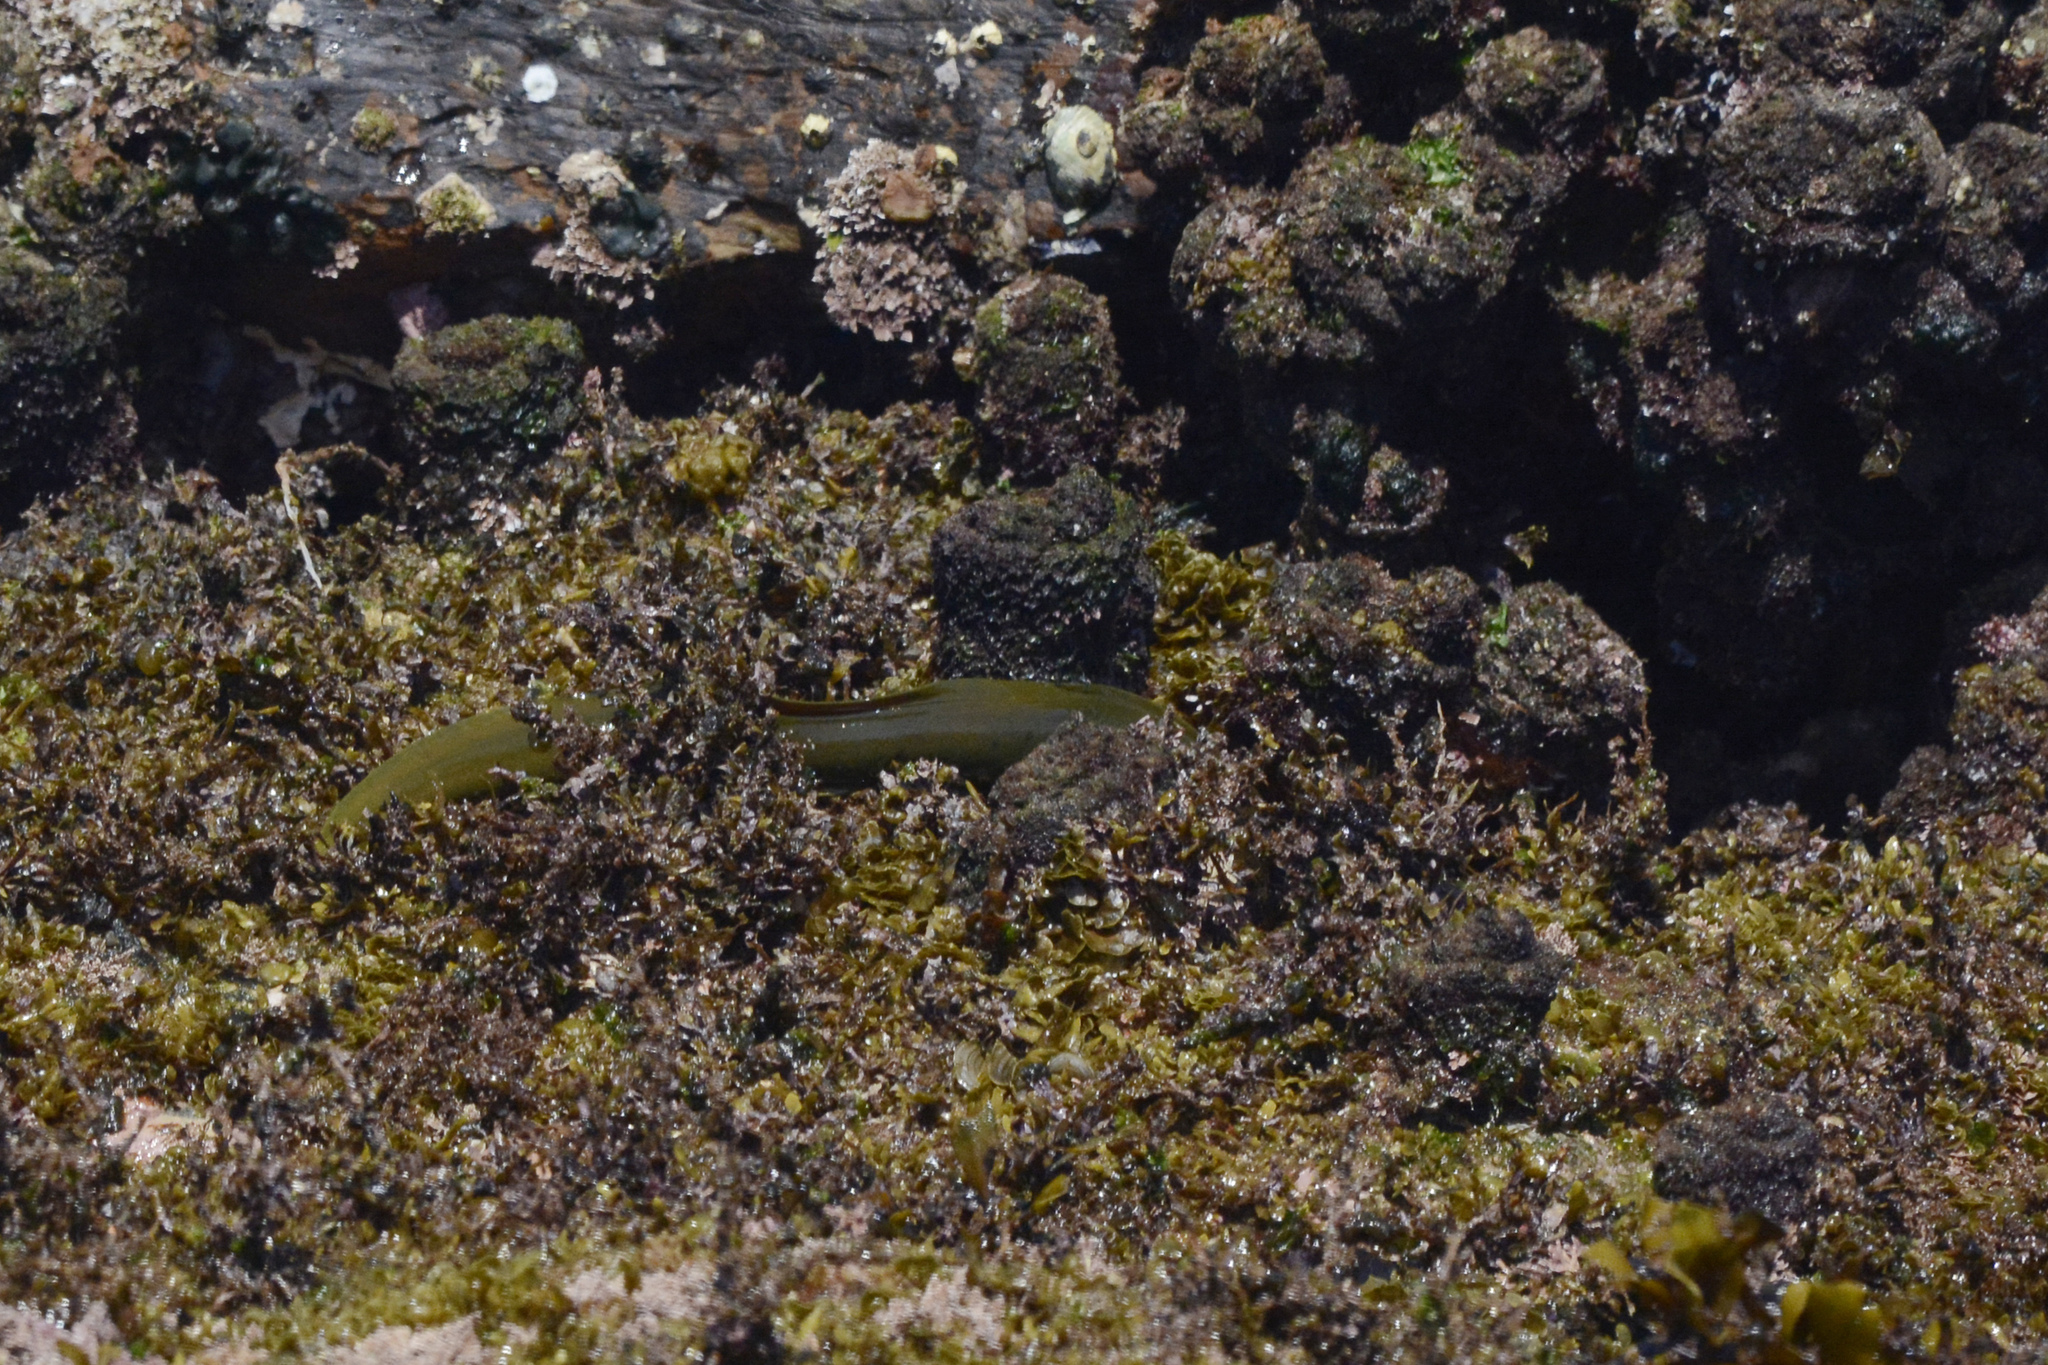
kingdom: Animalia
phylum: Chordata
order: Anguilliformes
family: Muraenidae
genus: Gymnothorax
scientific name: Gymnothorax prasinus
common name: Yellow moray
